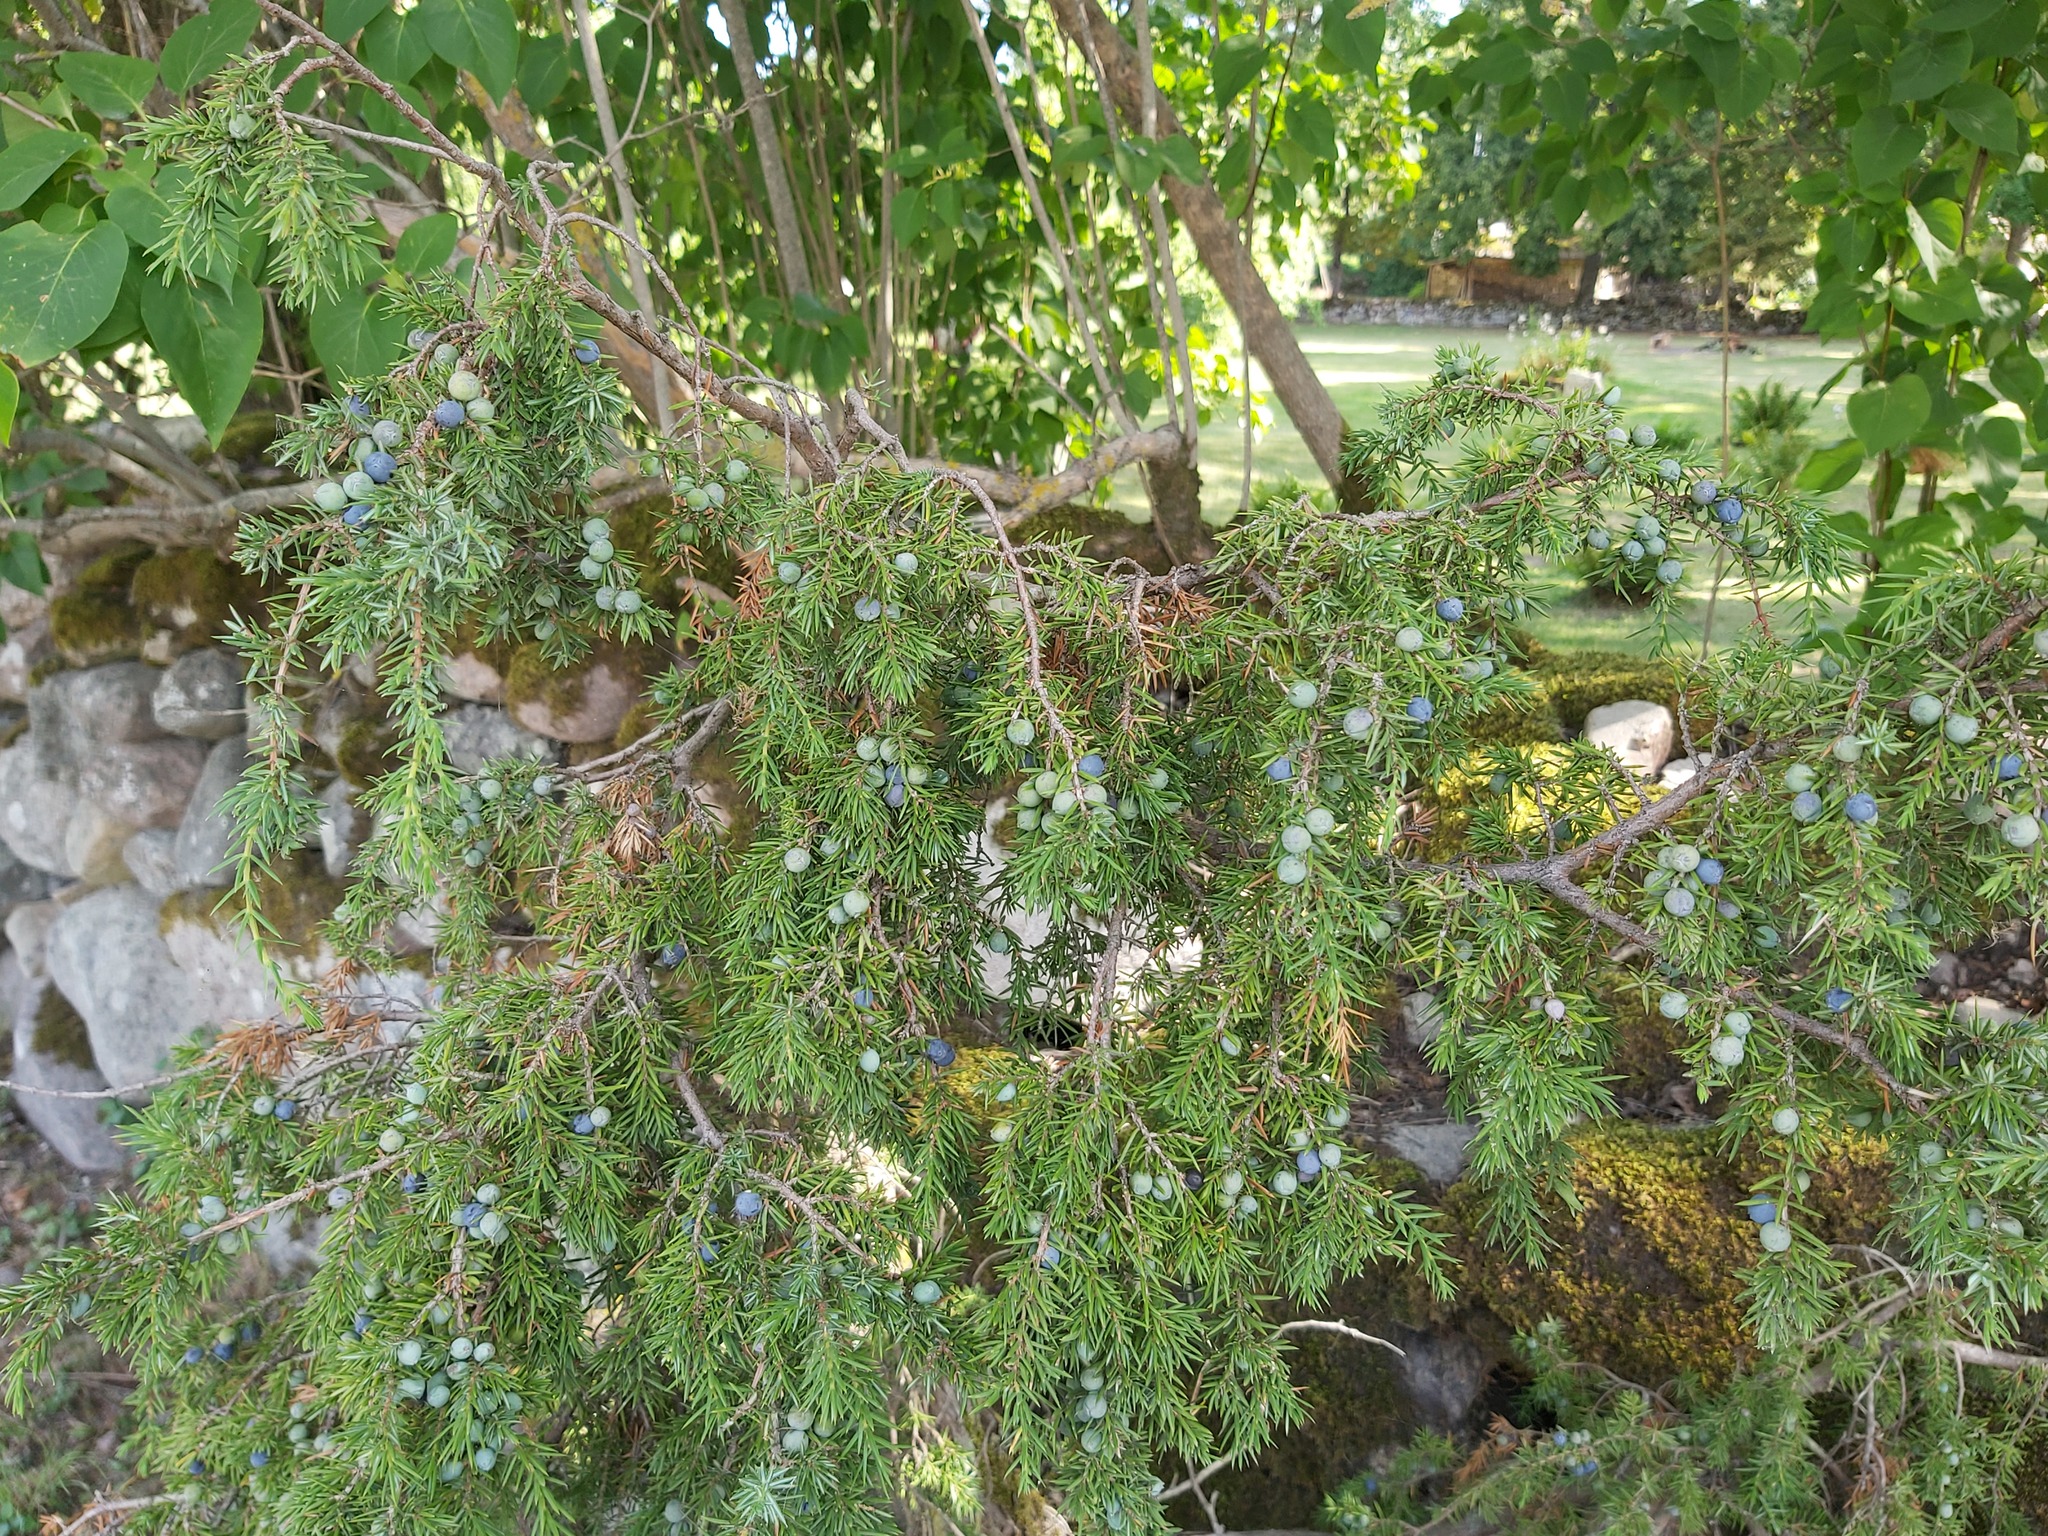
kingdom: Plantae
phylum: Tracheophyta
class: Pinopsida
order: Pinales
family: Cupressaceae
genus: Juniperus
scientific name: Juniperus communis
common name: Common juniper
